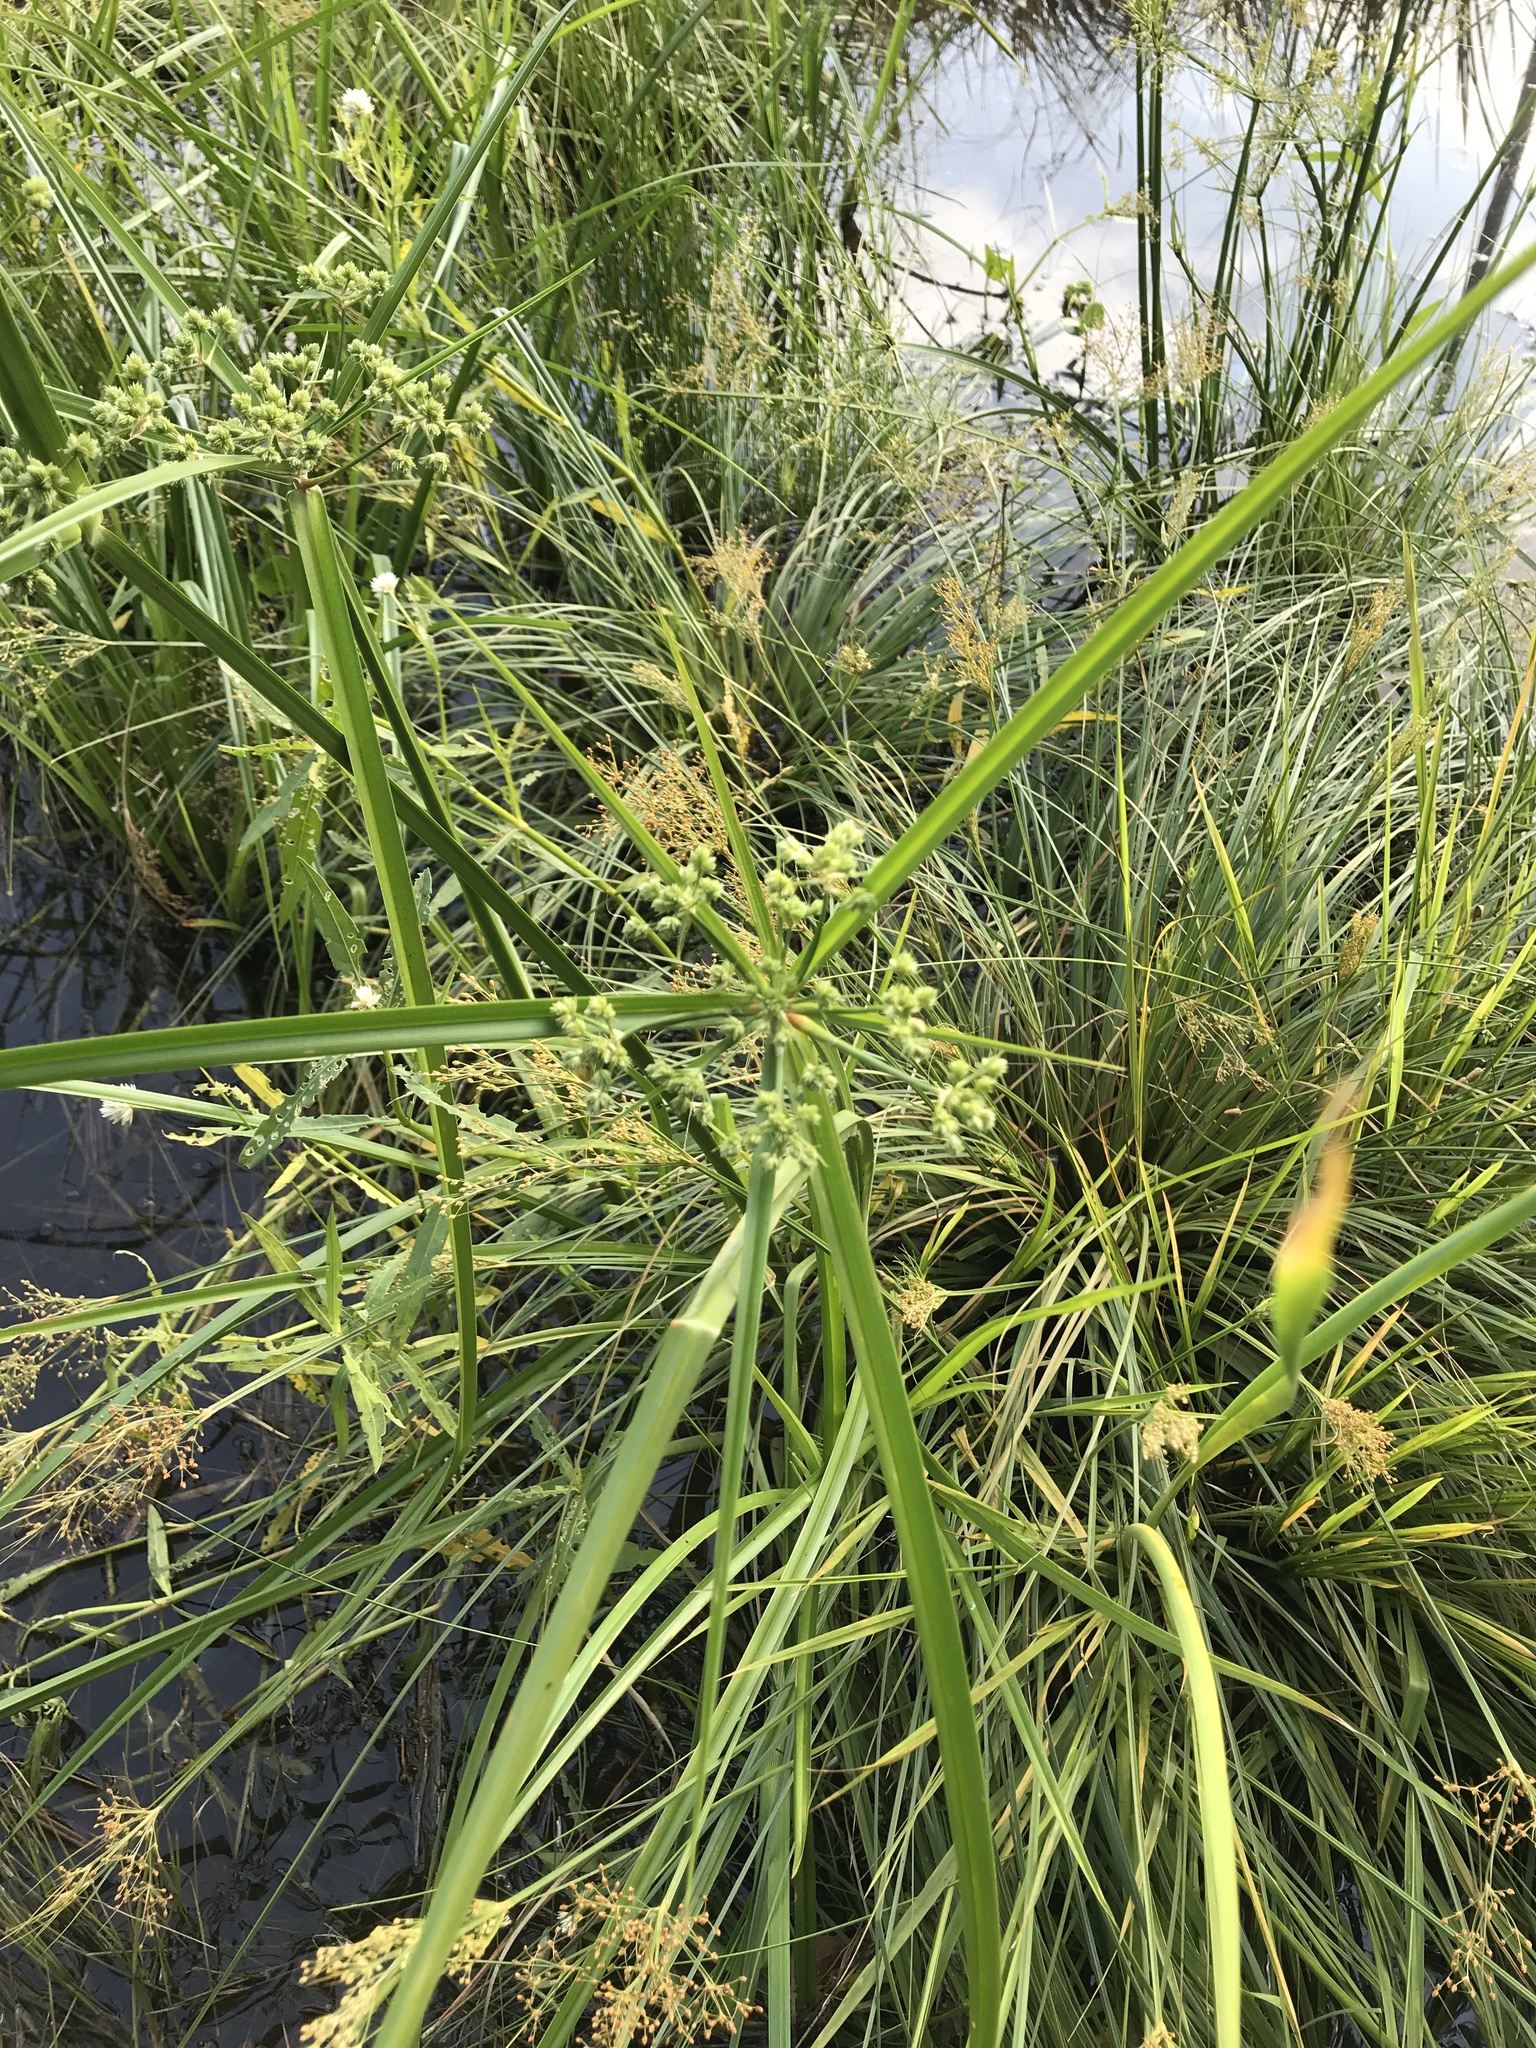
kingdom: Plantae
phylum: Tracheophyta
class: Liliopsida
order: Poales
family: Cyperaceae
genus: Cyperus
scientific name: Cyperus virens
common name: Green flatsedge
